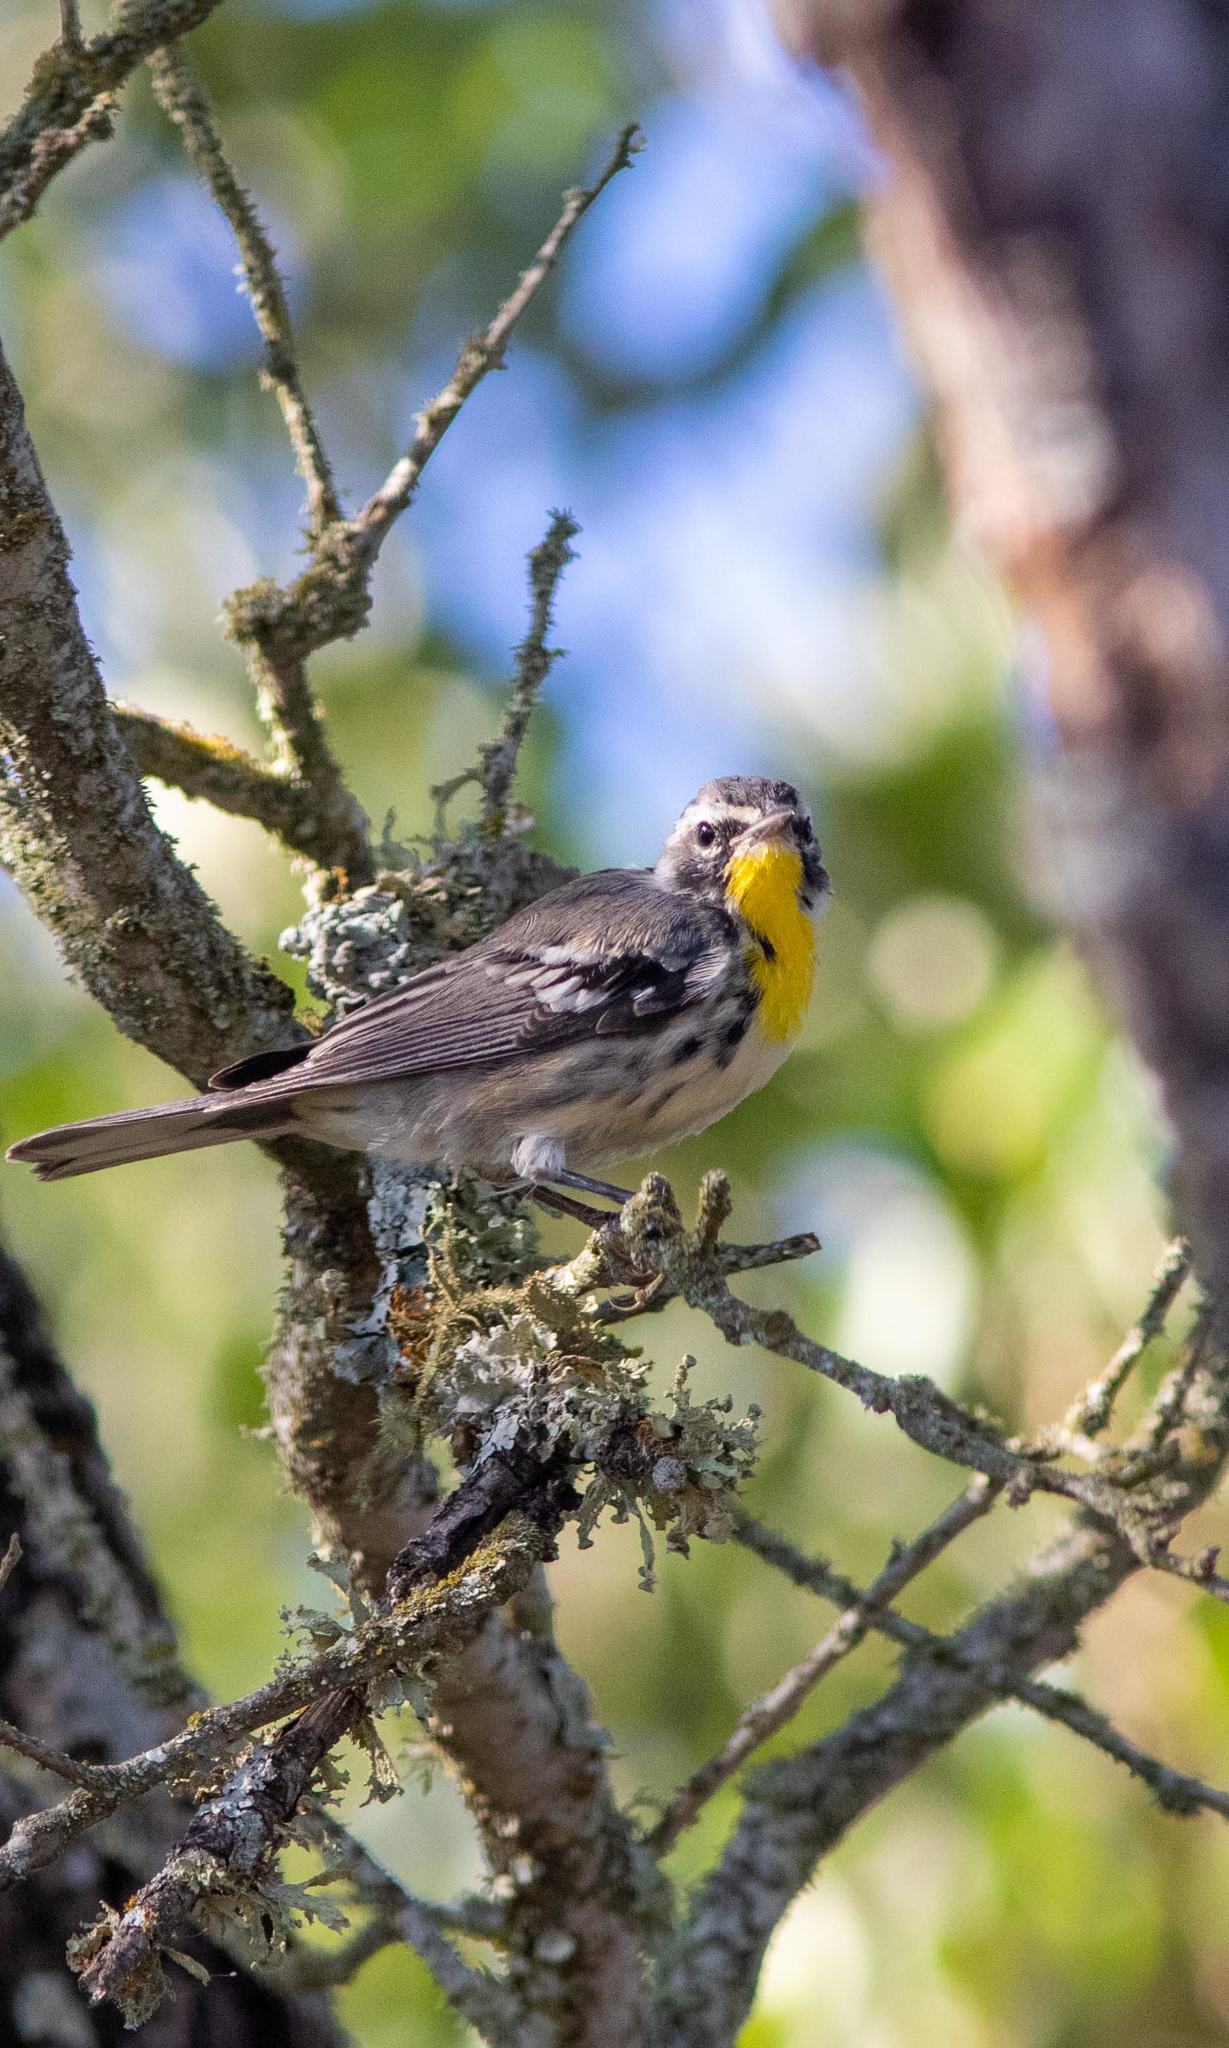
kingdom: Animalia
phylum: Chordata
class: Aves
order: Passeriformes
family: Parulidae
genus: Setophaga
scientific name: Setophaga dominica
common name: Yellow-throated warbler
